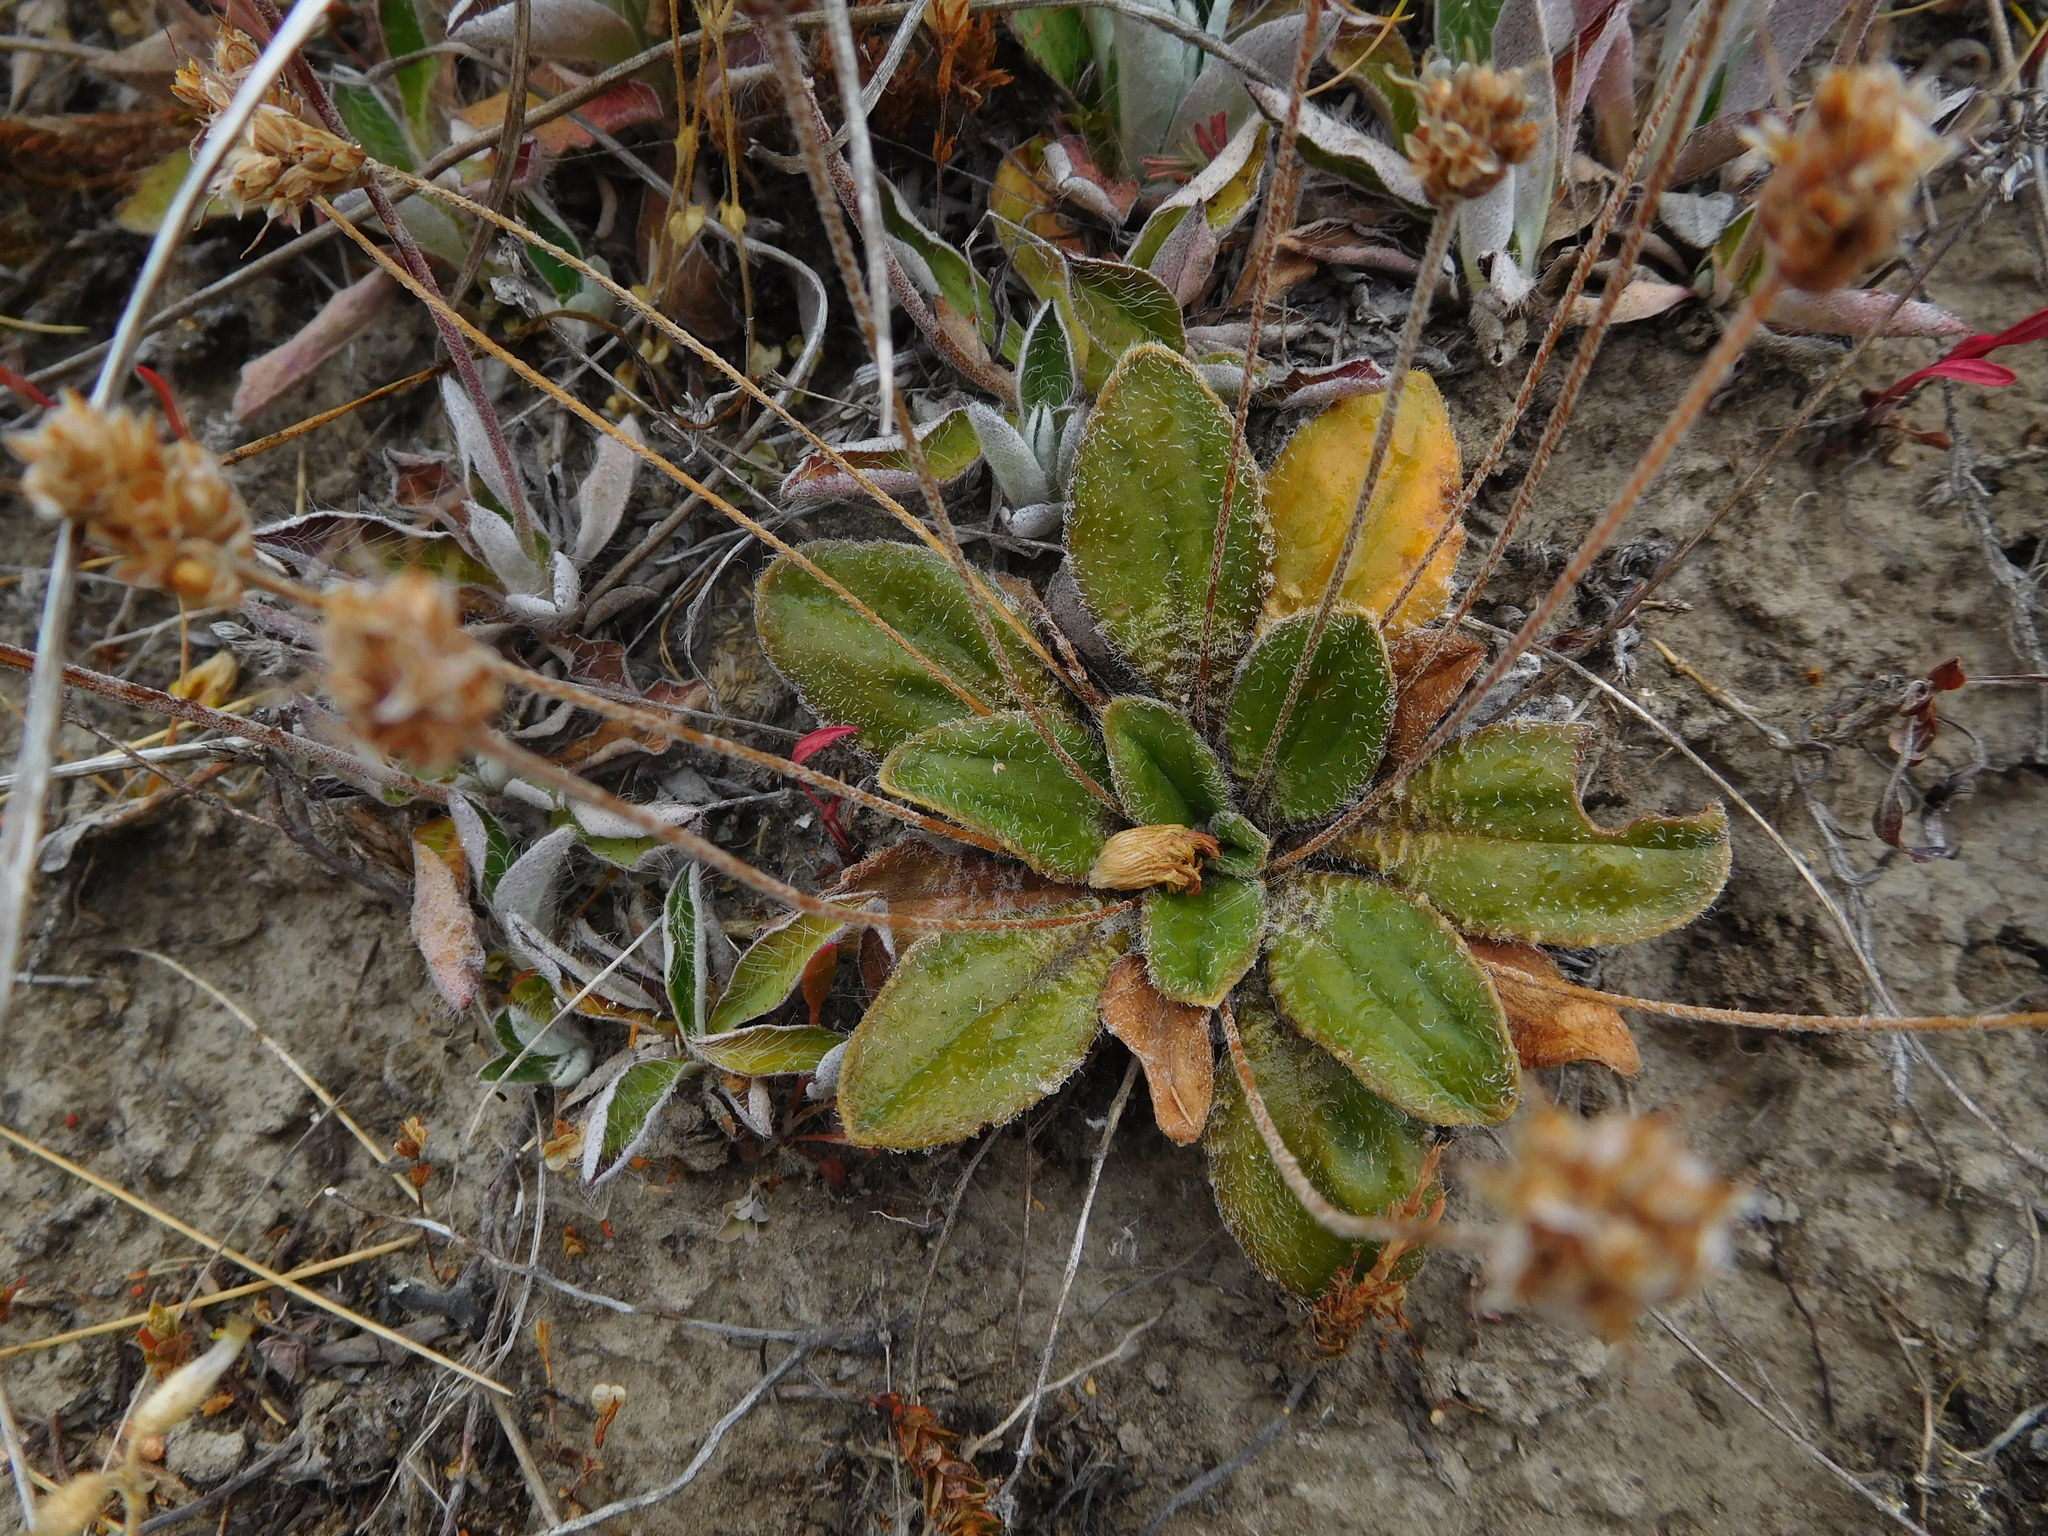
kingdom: Plantae
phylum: Tracheophyta
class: Magnoliopsida
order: Lamiales
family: Plantaginaceae
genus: Plantago
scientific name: Plantago spathulata
